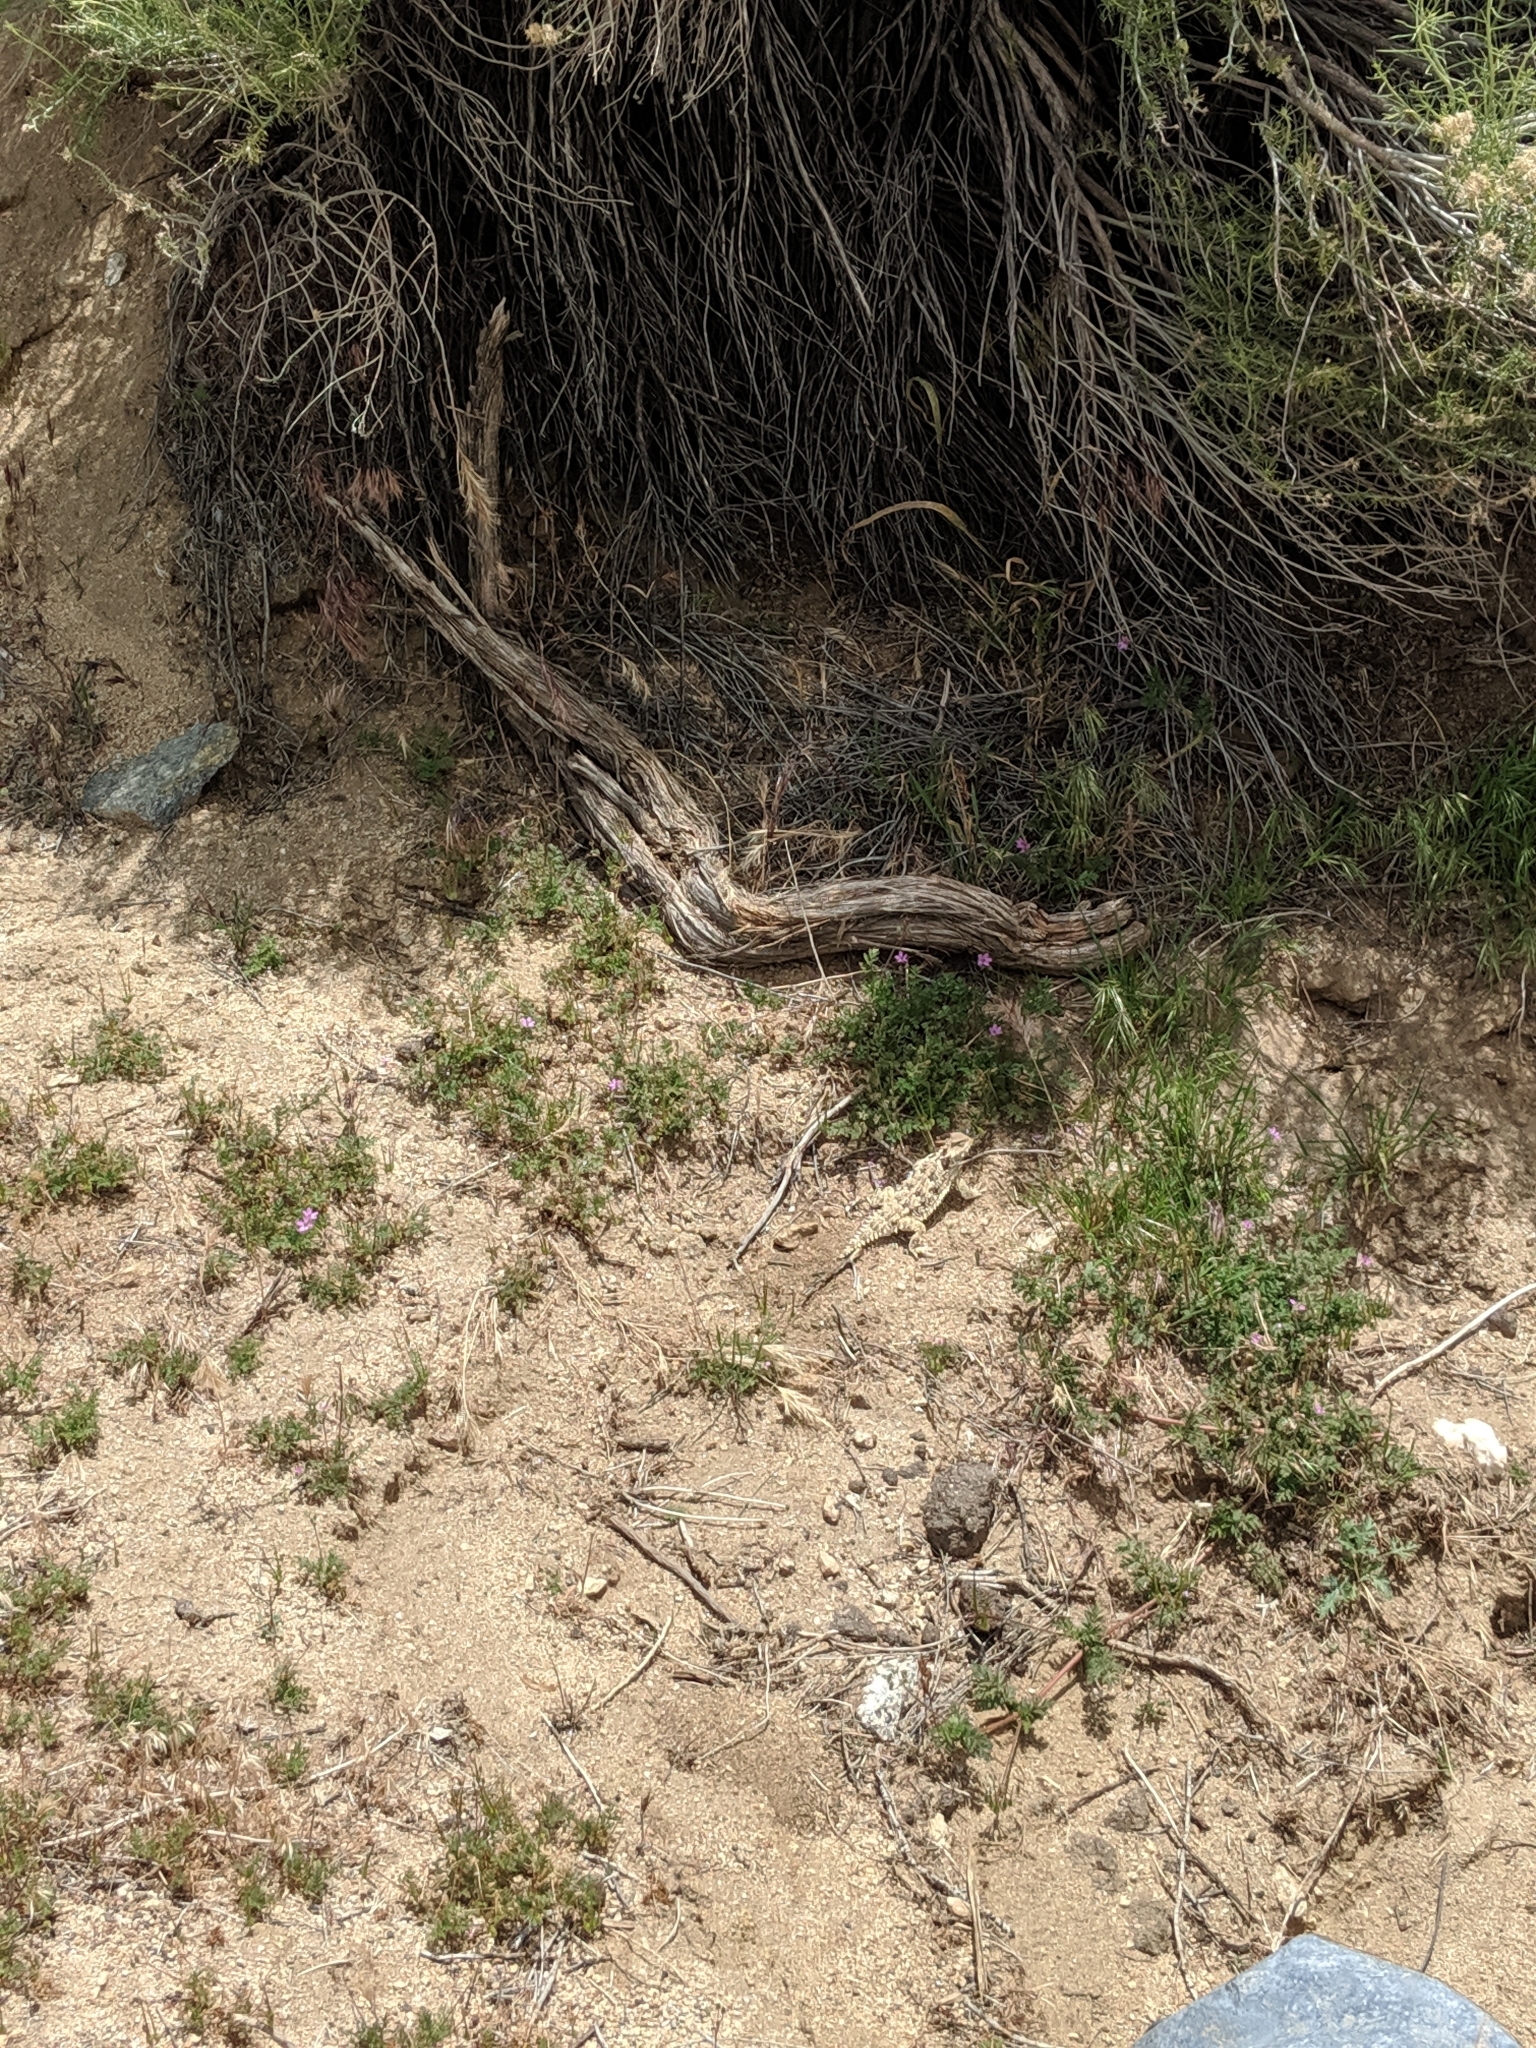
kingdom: Animalia
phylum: Chordata
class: Squamata
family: Phrynosomatidae
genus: Phrynosoma
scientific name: Phrynosoma blainvillii
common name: San diego horned lizard
